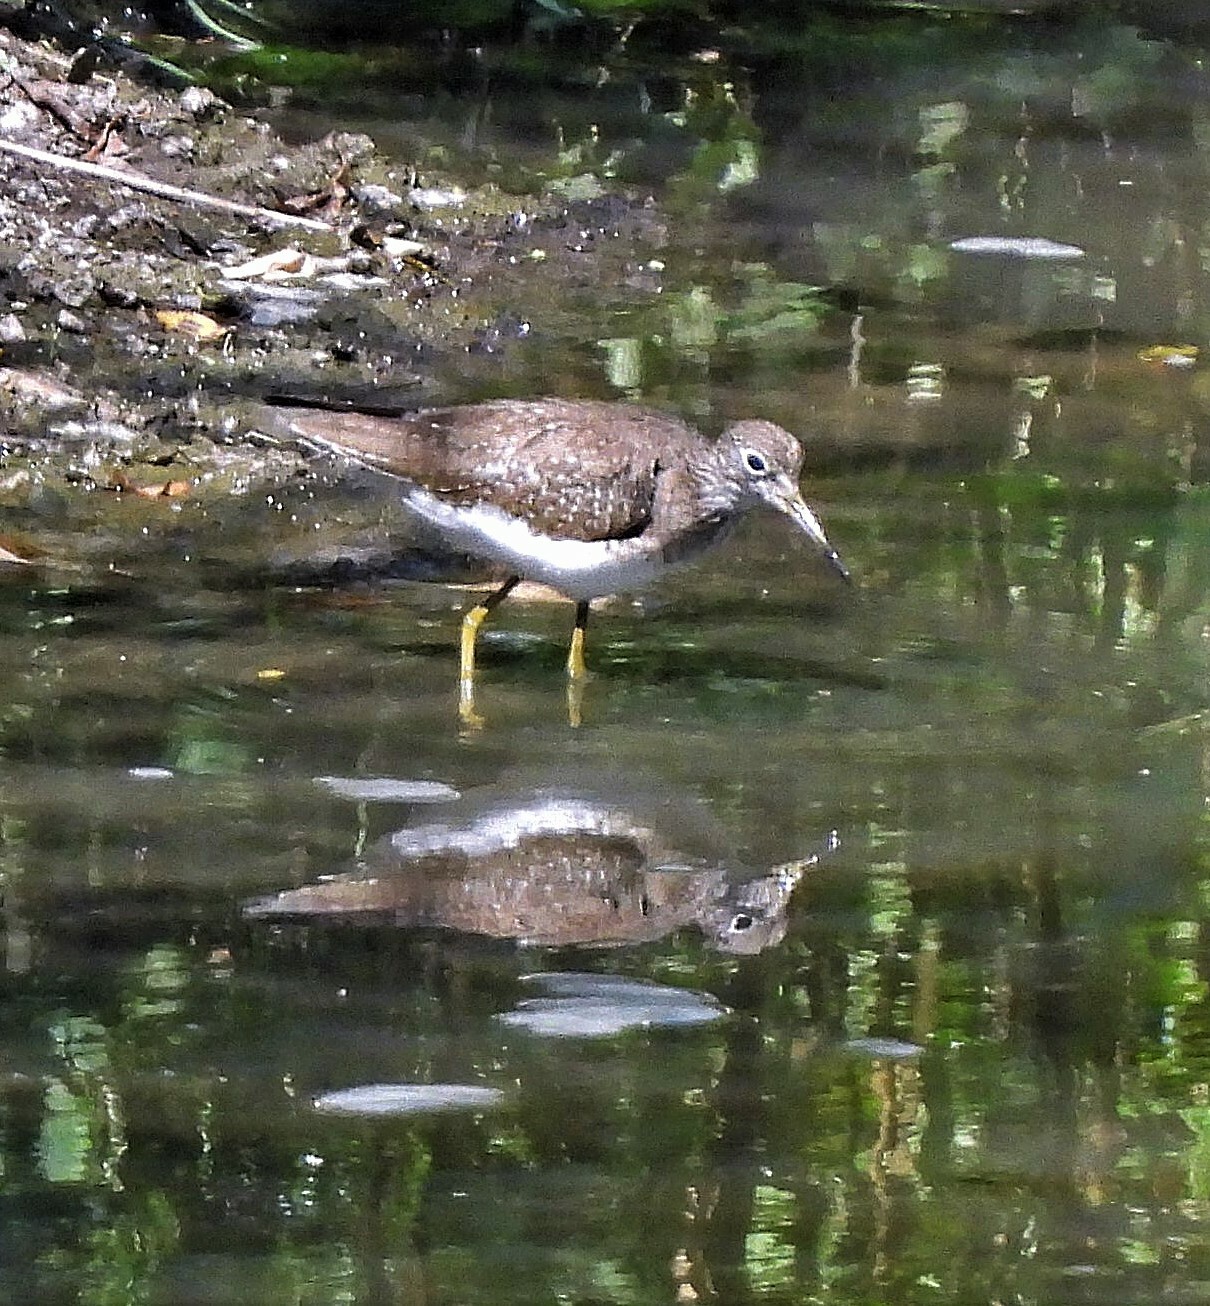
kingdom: Animalia
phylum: Chordata
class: Aves
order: Charadriiformes
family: Scolopacidae
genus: Tringa
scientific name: Tringa solitaria
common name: Solitary sandpiper
